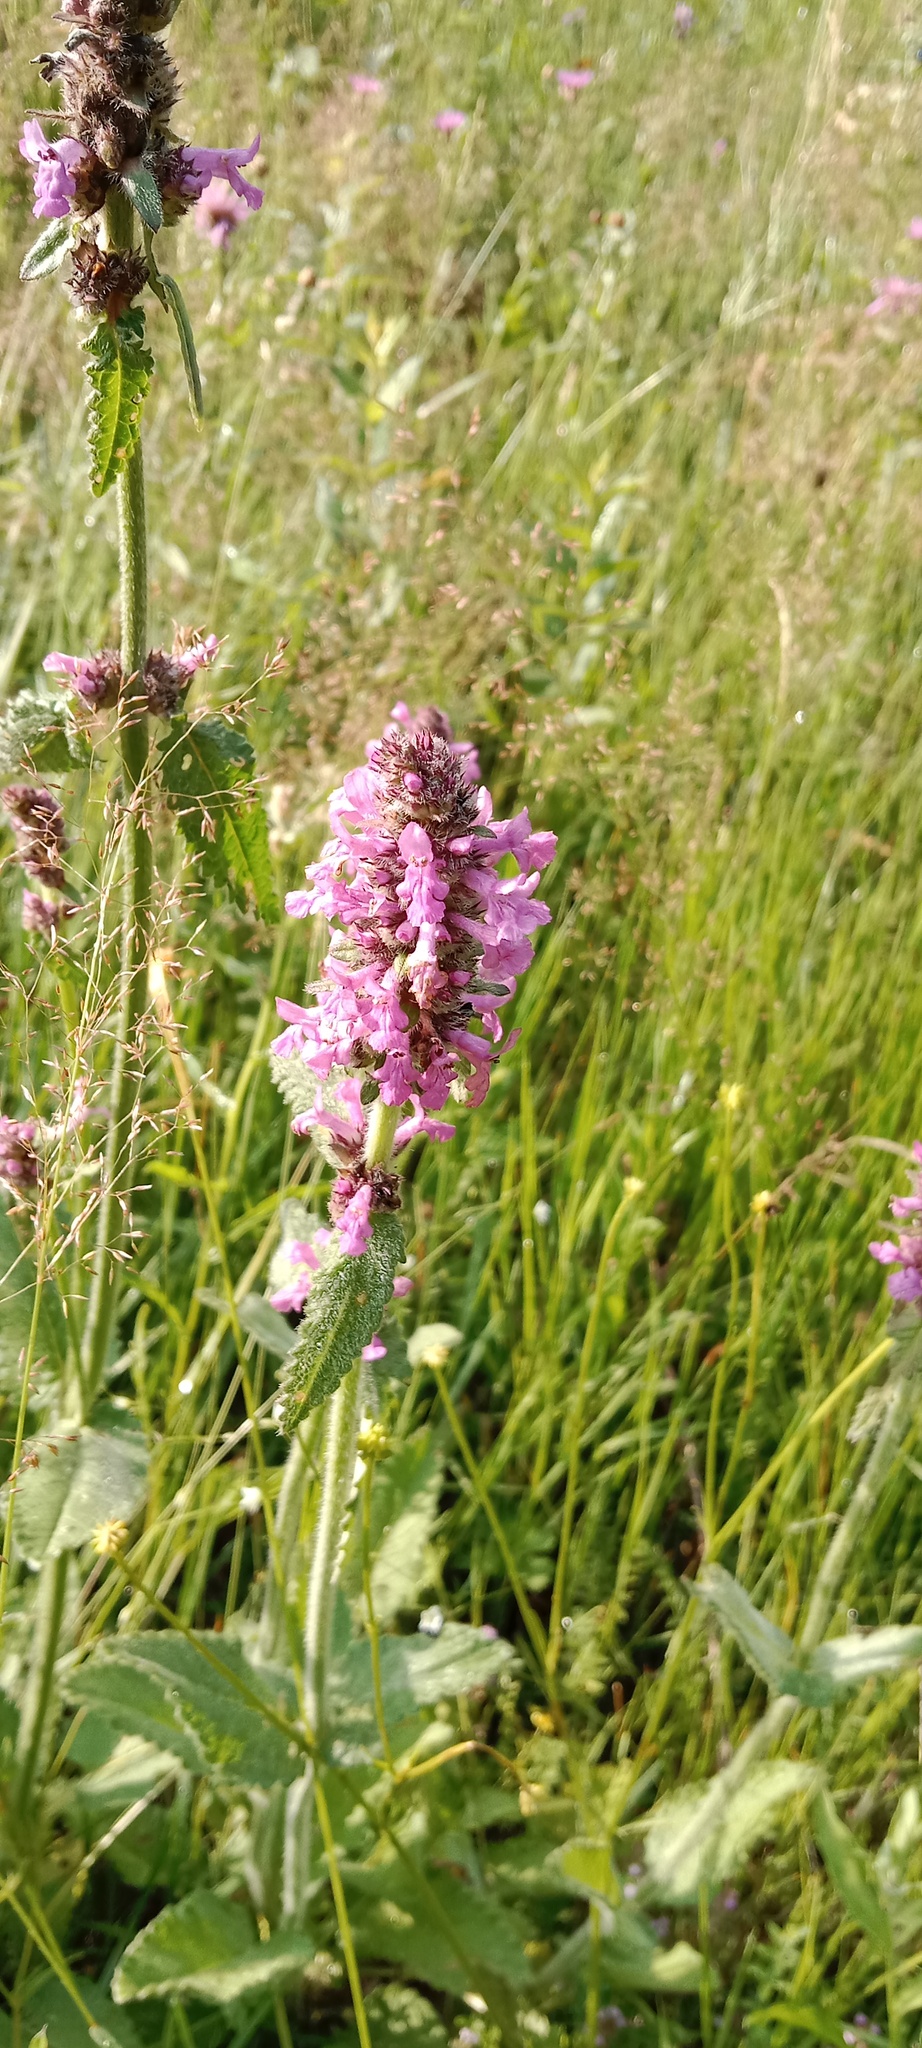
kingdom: Plantae
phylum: Tracheophyta
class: Magnoliopsida
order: Lamiales
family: Lamiaceae
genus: Betonica
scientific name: Betonica officinalis
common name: Bishop's-wort
